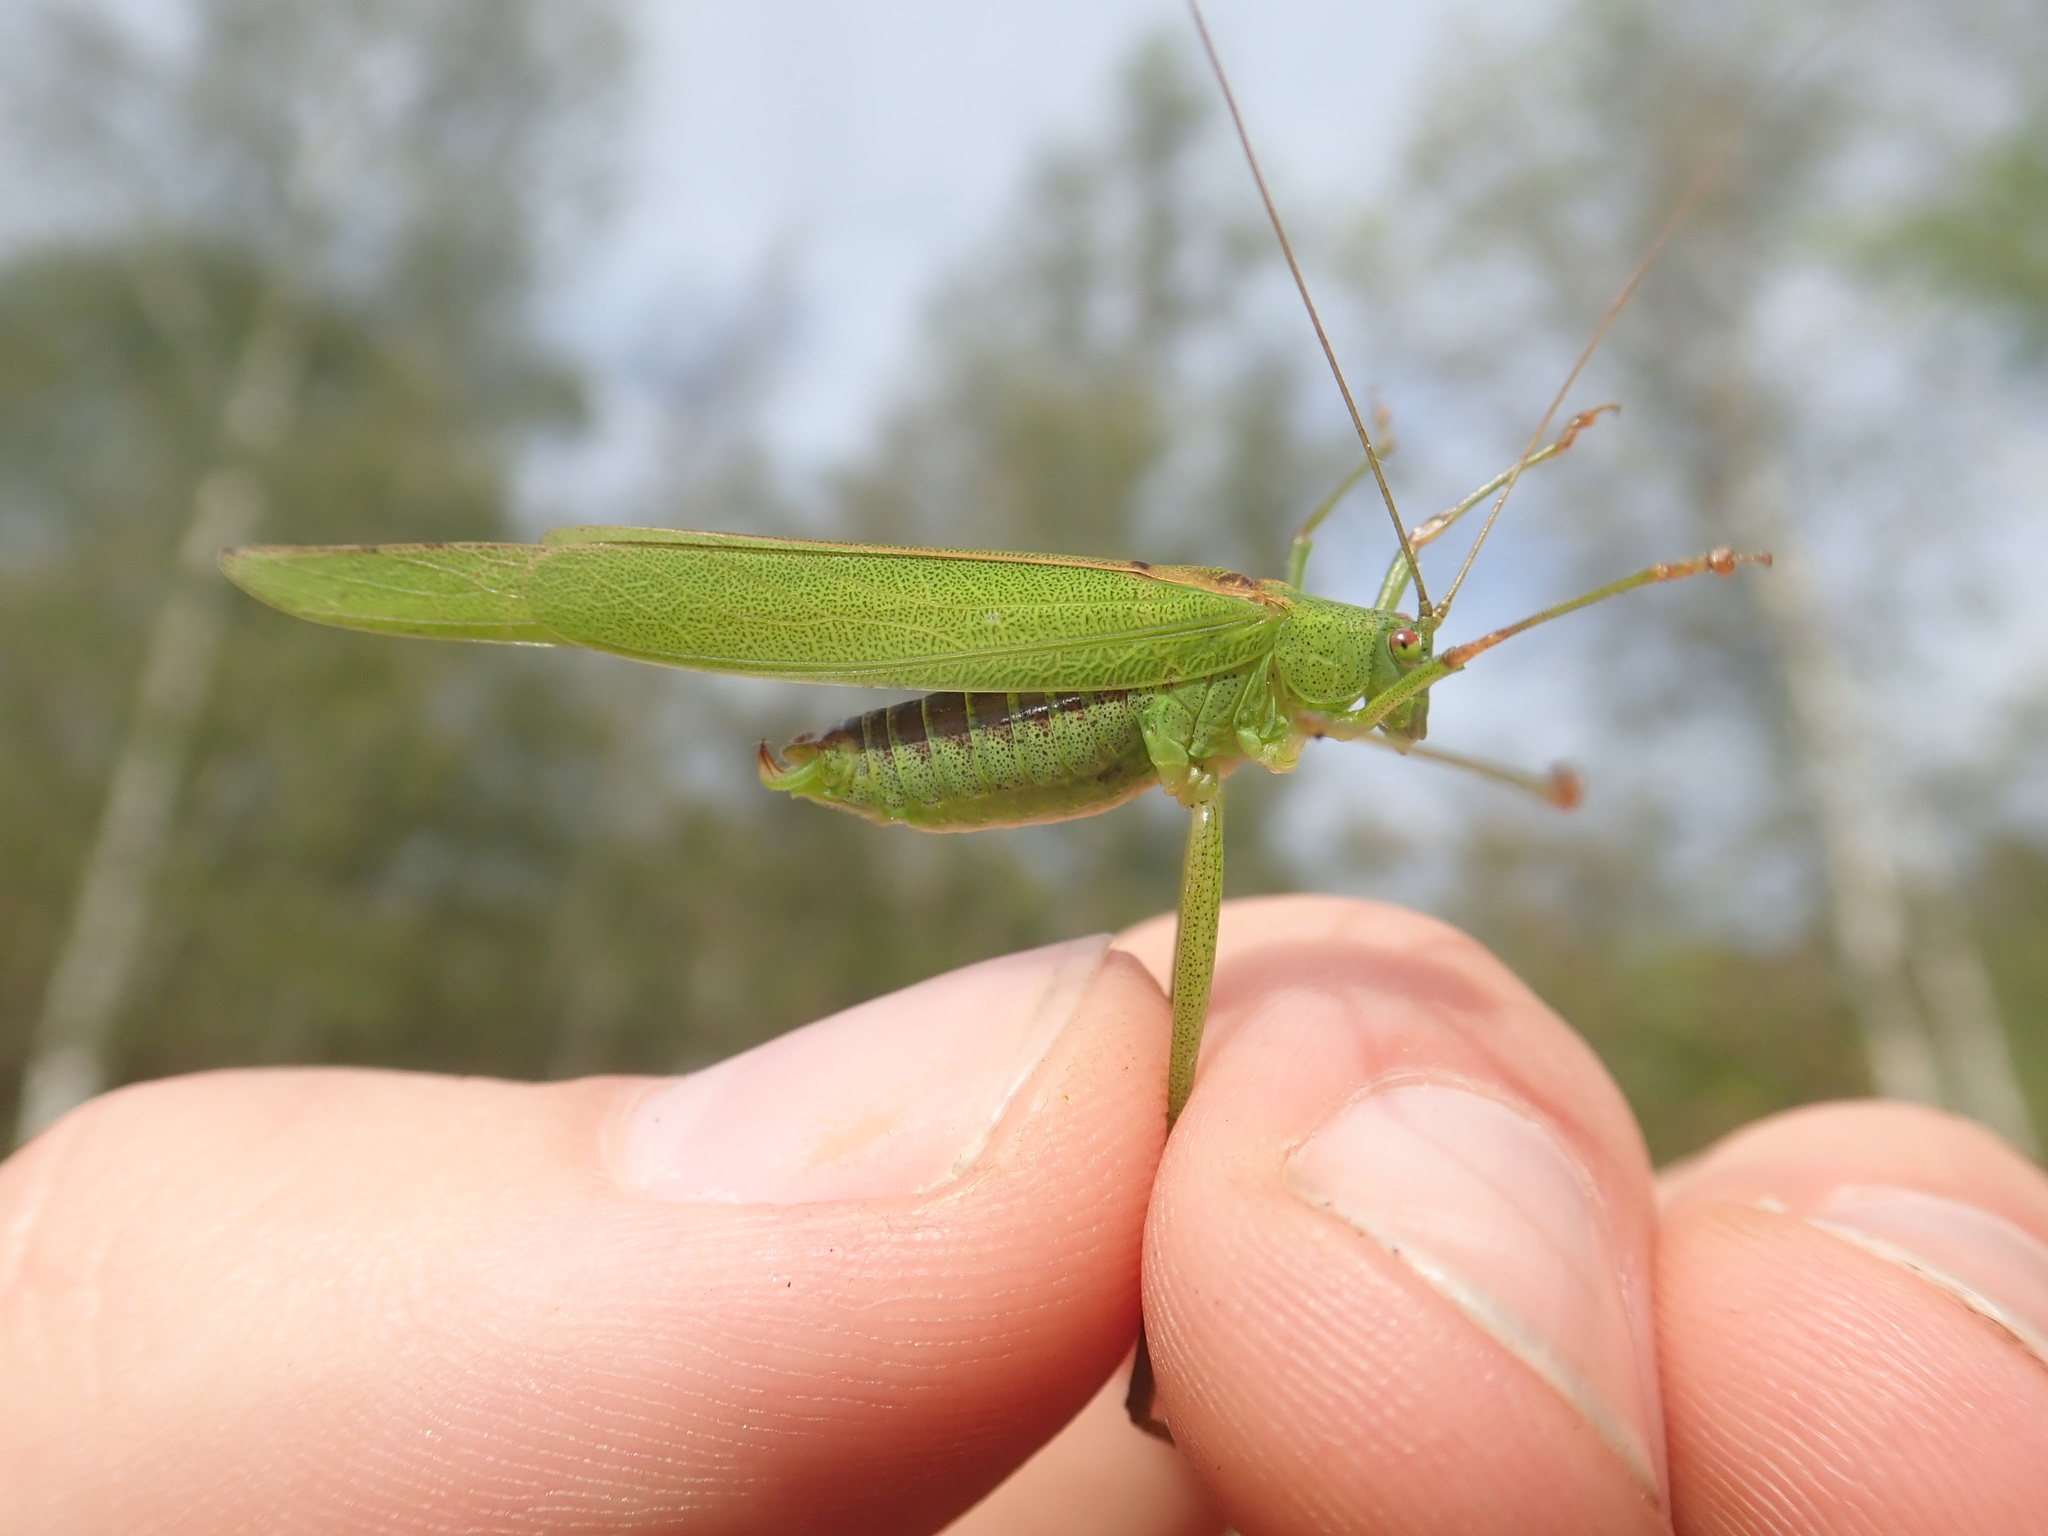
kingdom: Animalia
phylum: Arthropoda
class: Insecta
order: Orthoptera
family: Tettigoniidae
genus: Phaneroptera
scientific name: Phaneroptera falcata
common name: Sickle-bearing bush-cricket
